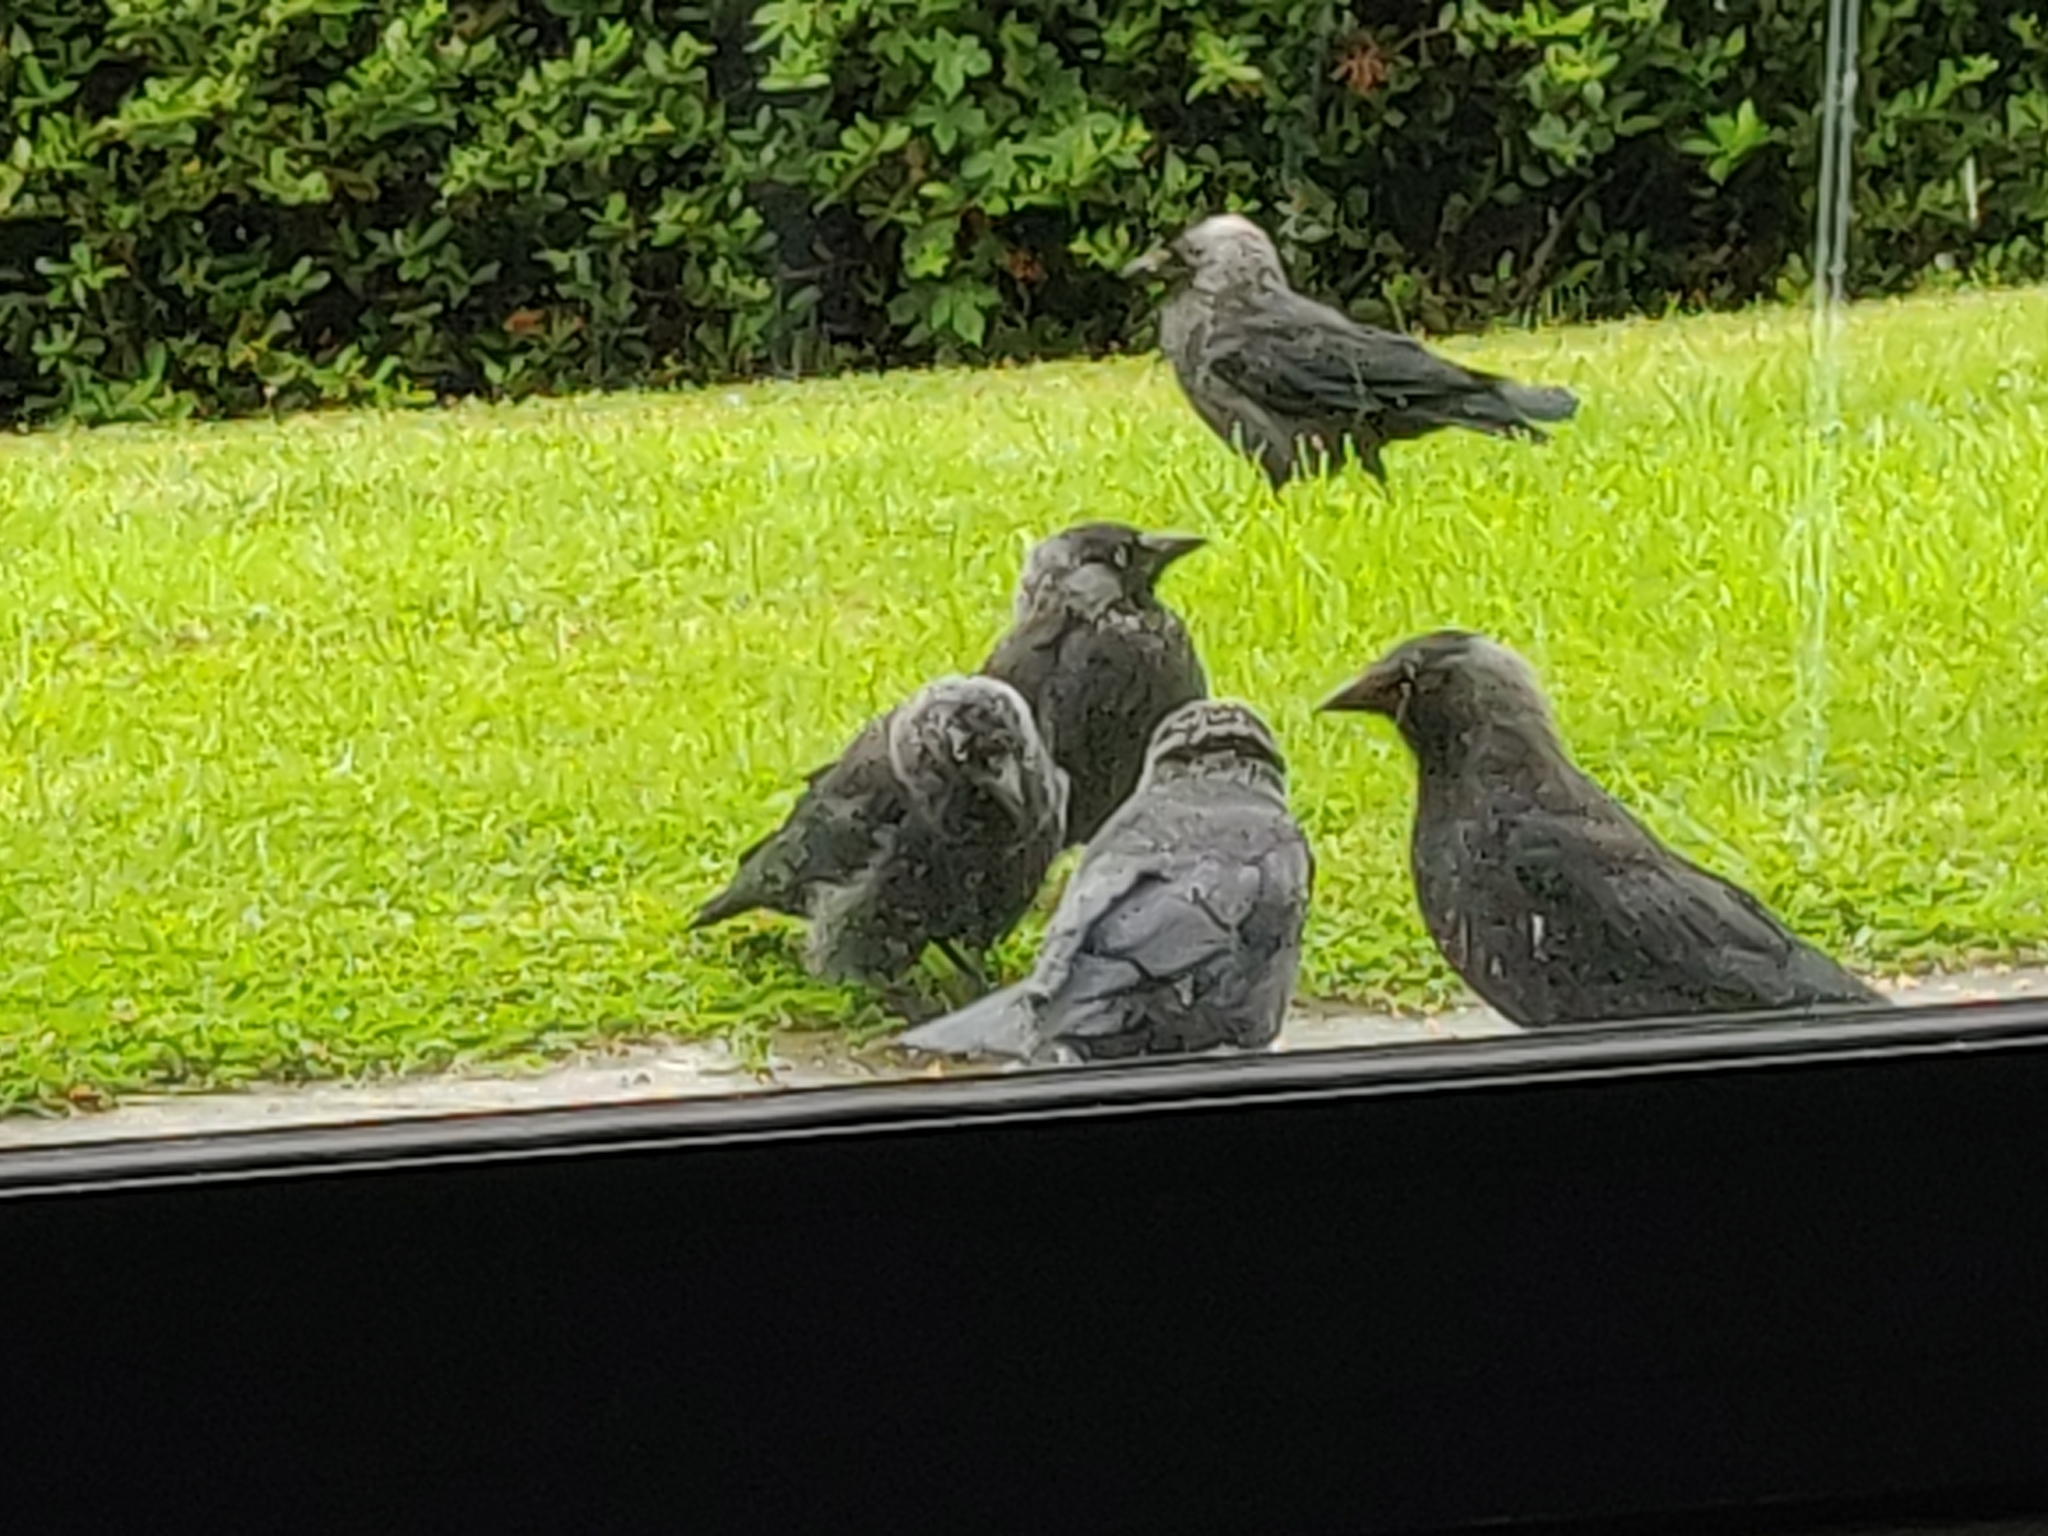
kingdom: Animalia
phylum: Chordata
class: Aves
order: Passeriformes
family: Corvidae
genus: Coloeus
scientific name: Coloeus monedula
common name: Western jackdaw
